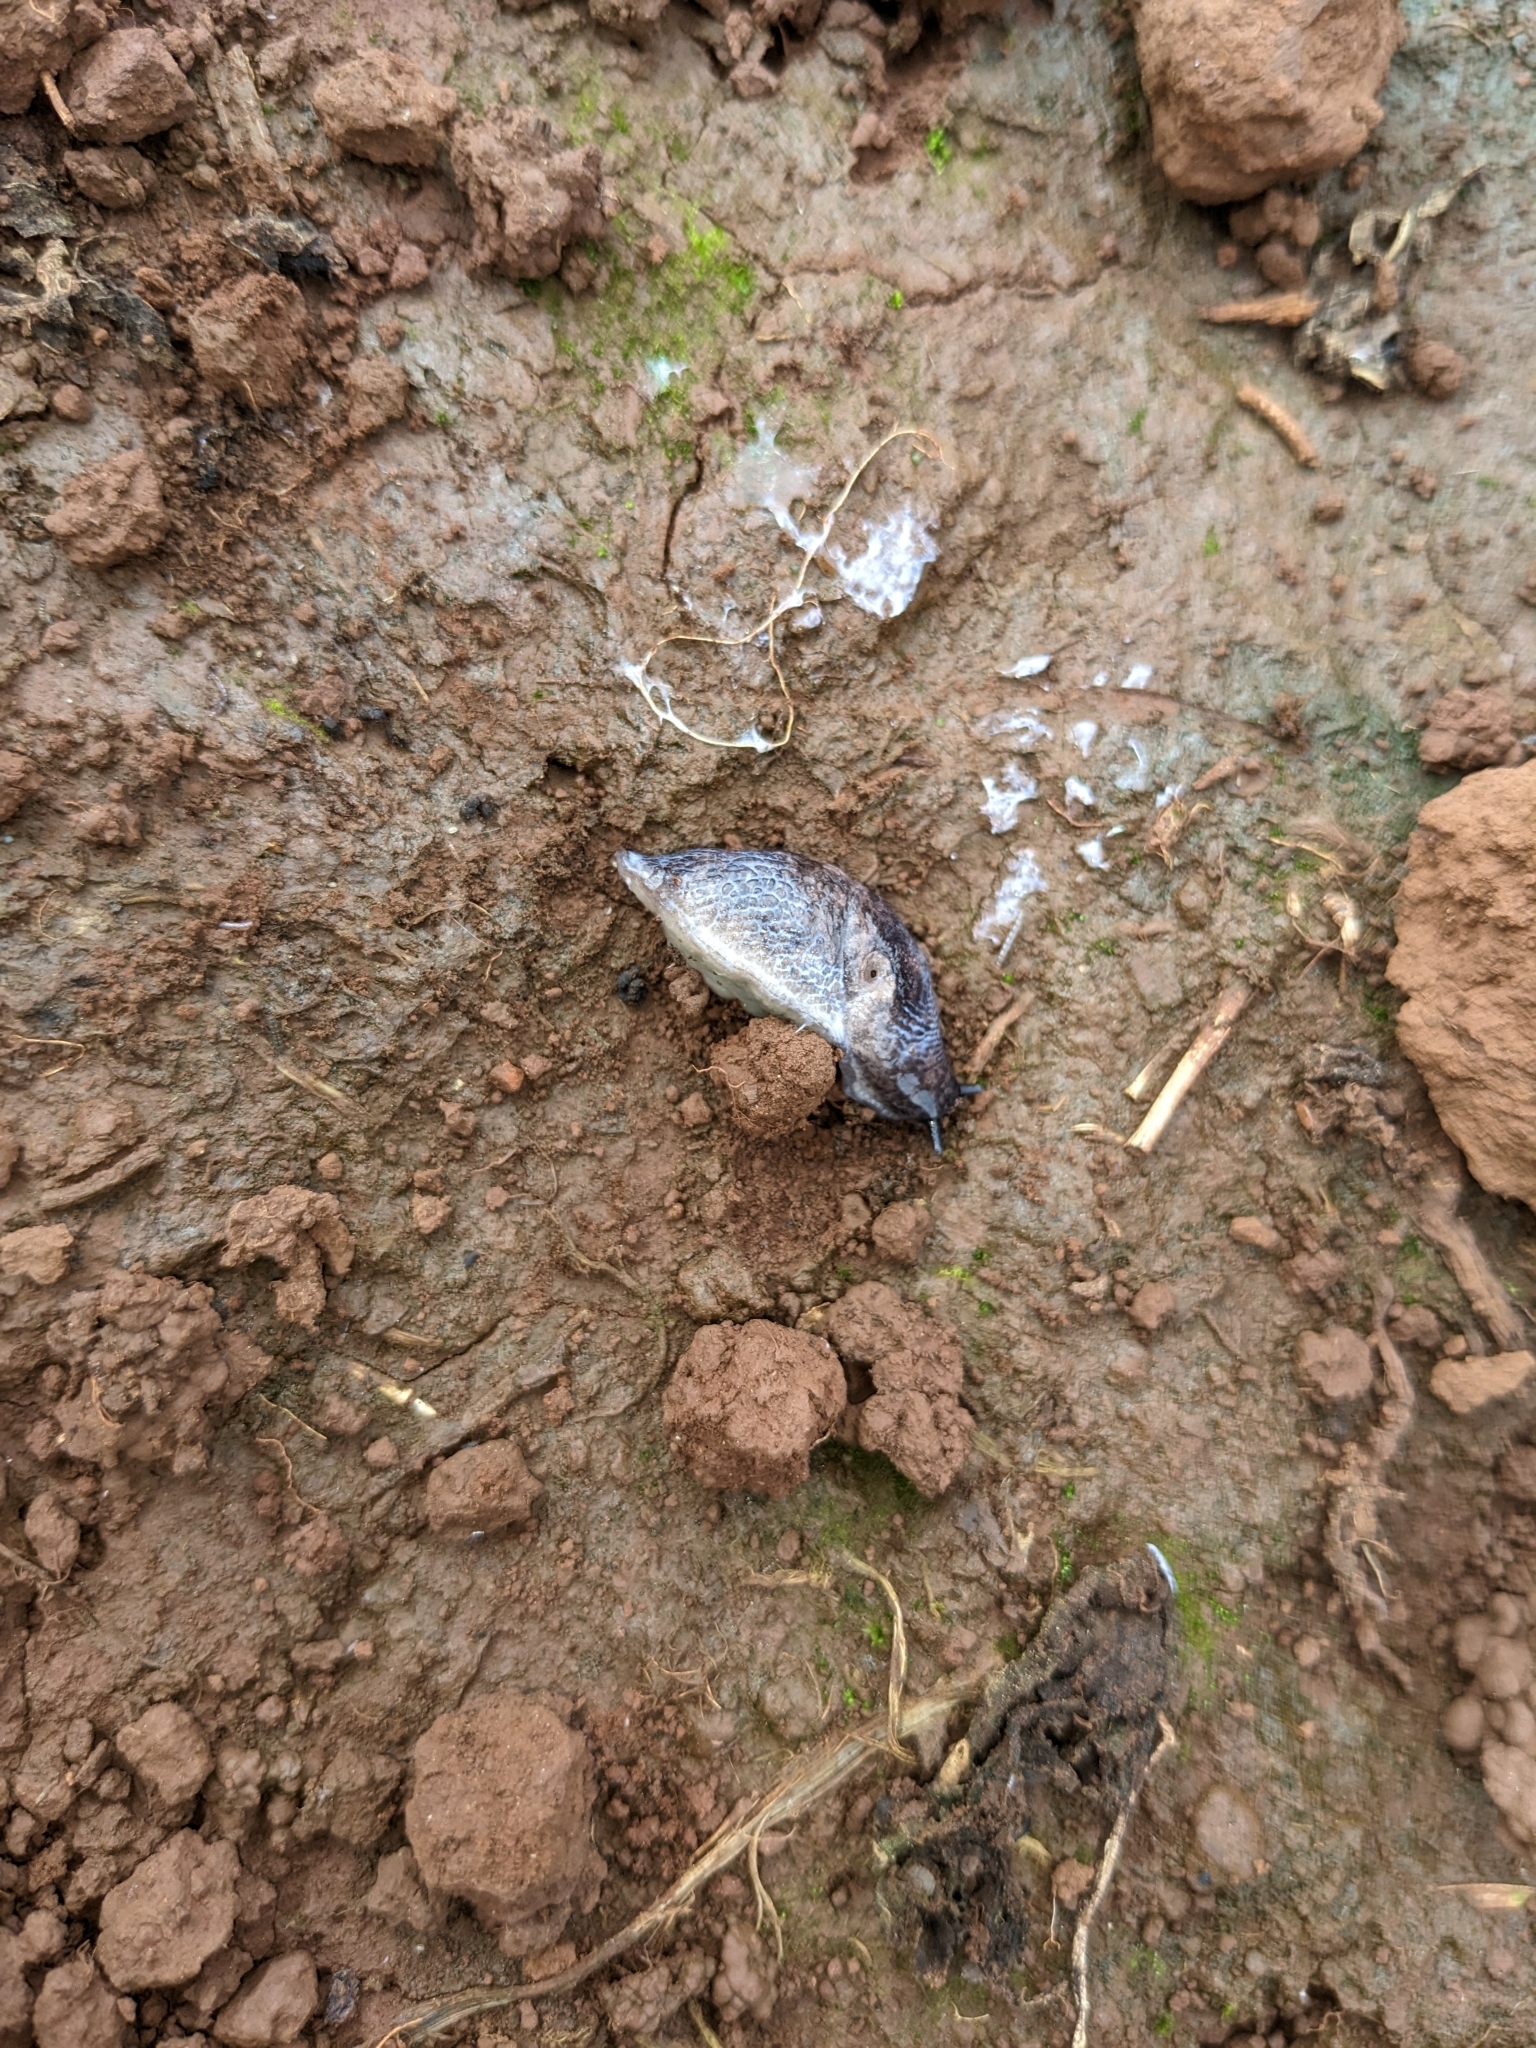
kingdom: Animalia
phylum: Mollusca
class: Gastropoda
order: Stylommatophora
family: Agriolimacidae
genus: Deroceras
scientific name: Deroceras reticulatum
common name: Gray field slug
